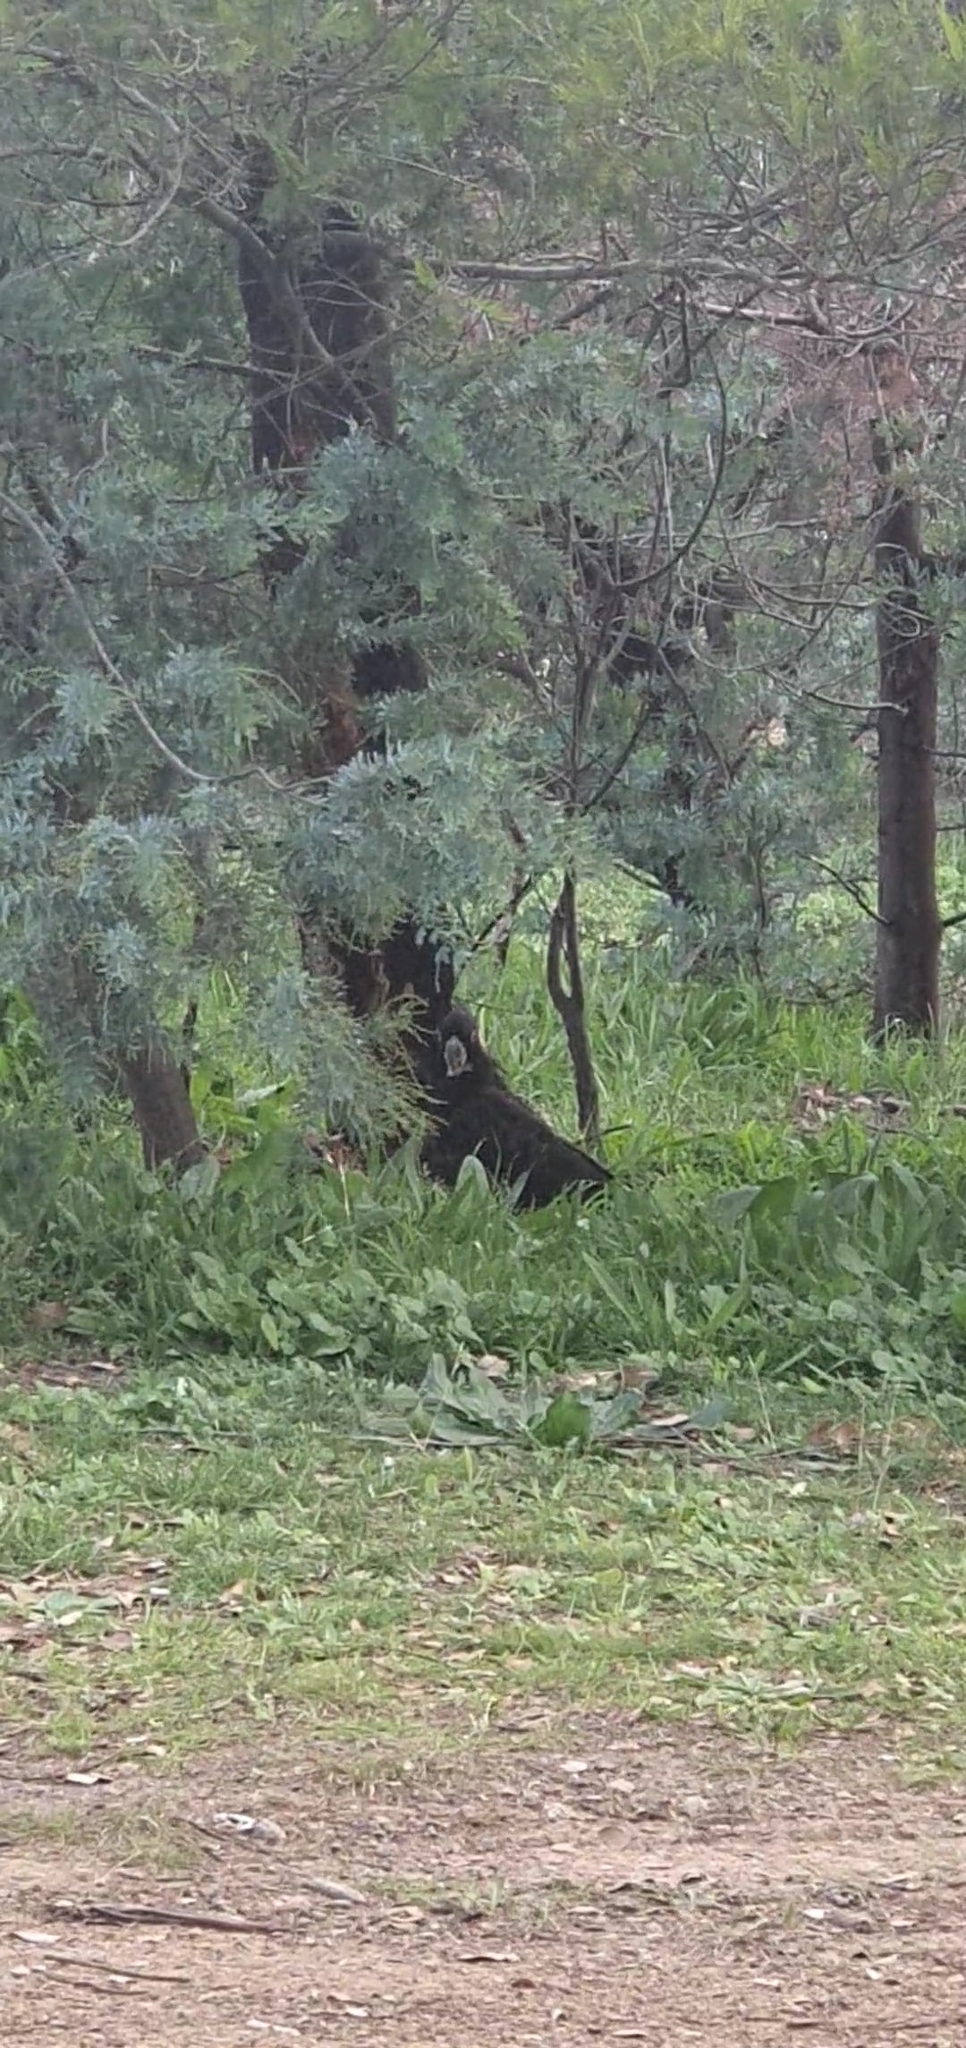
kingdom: Animalia
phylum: Chordata
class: Aves
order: Psittaciformes
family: Cacatuidae
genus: Zanda
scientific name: Zanda funerea
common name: Yellow-tailed black-cockatoo
